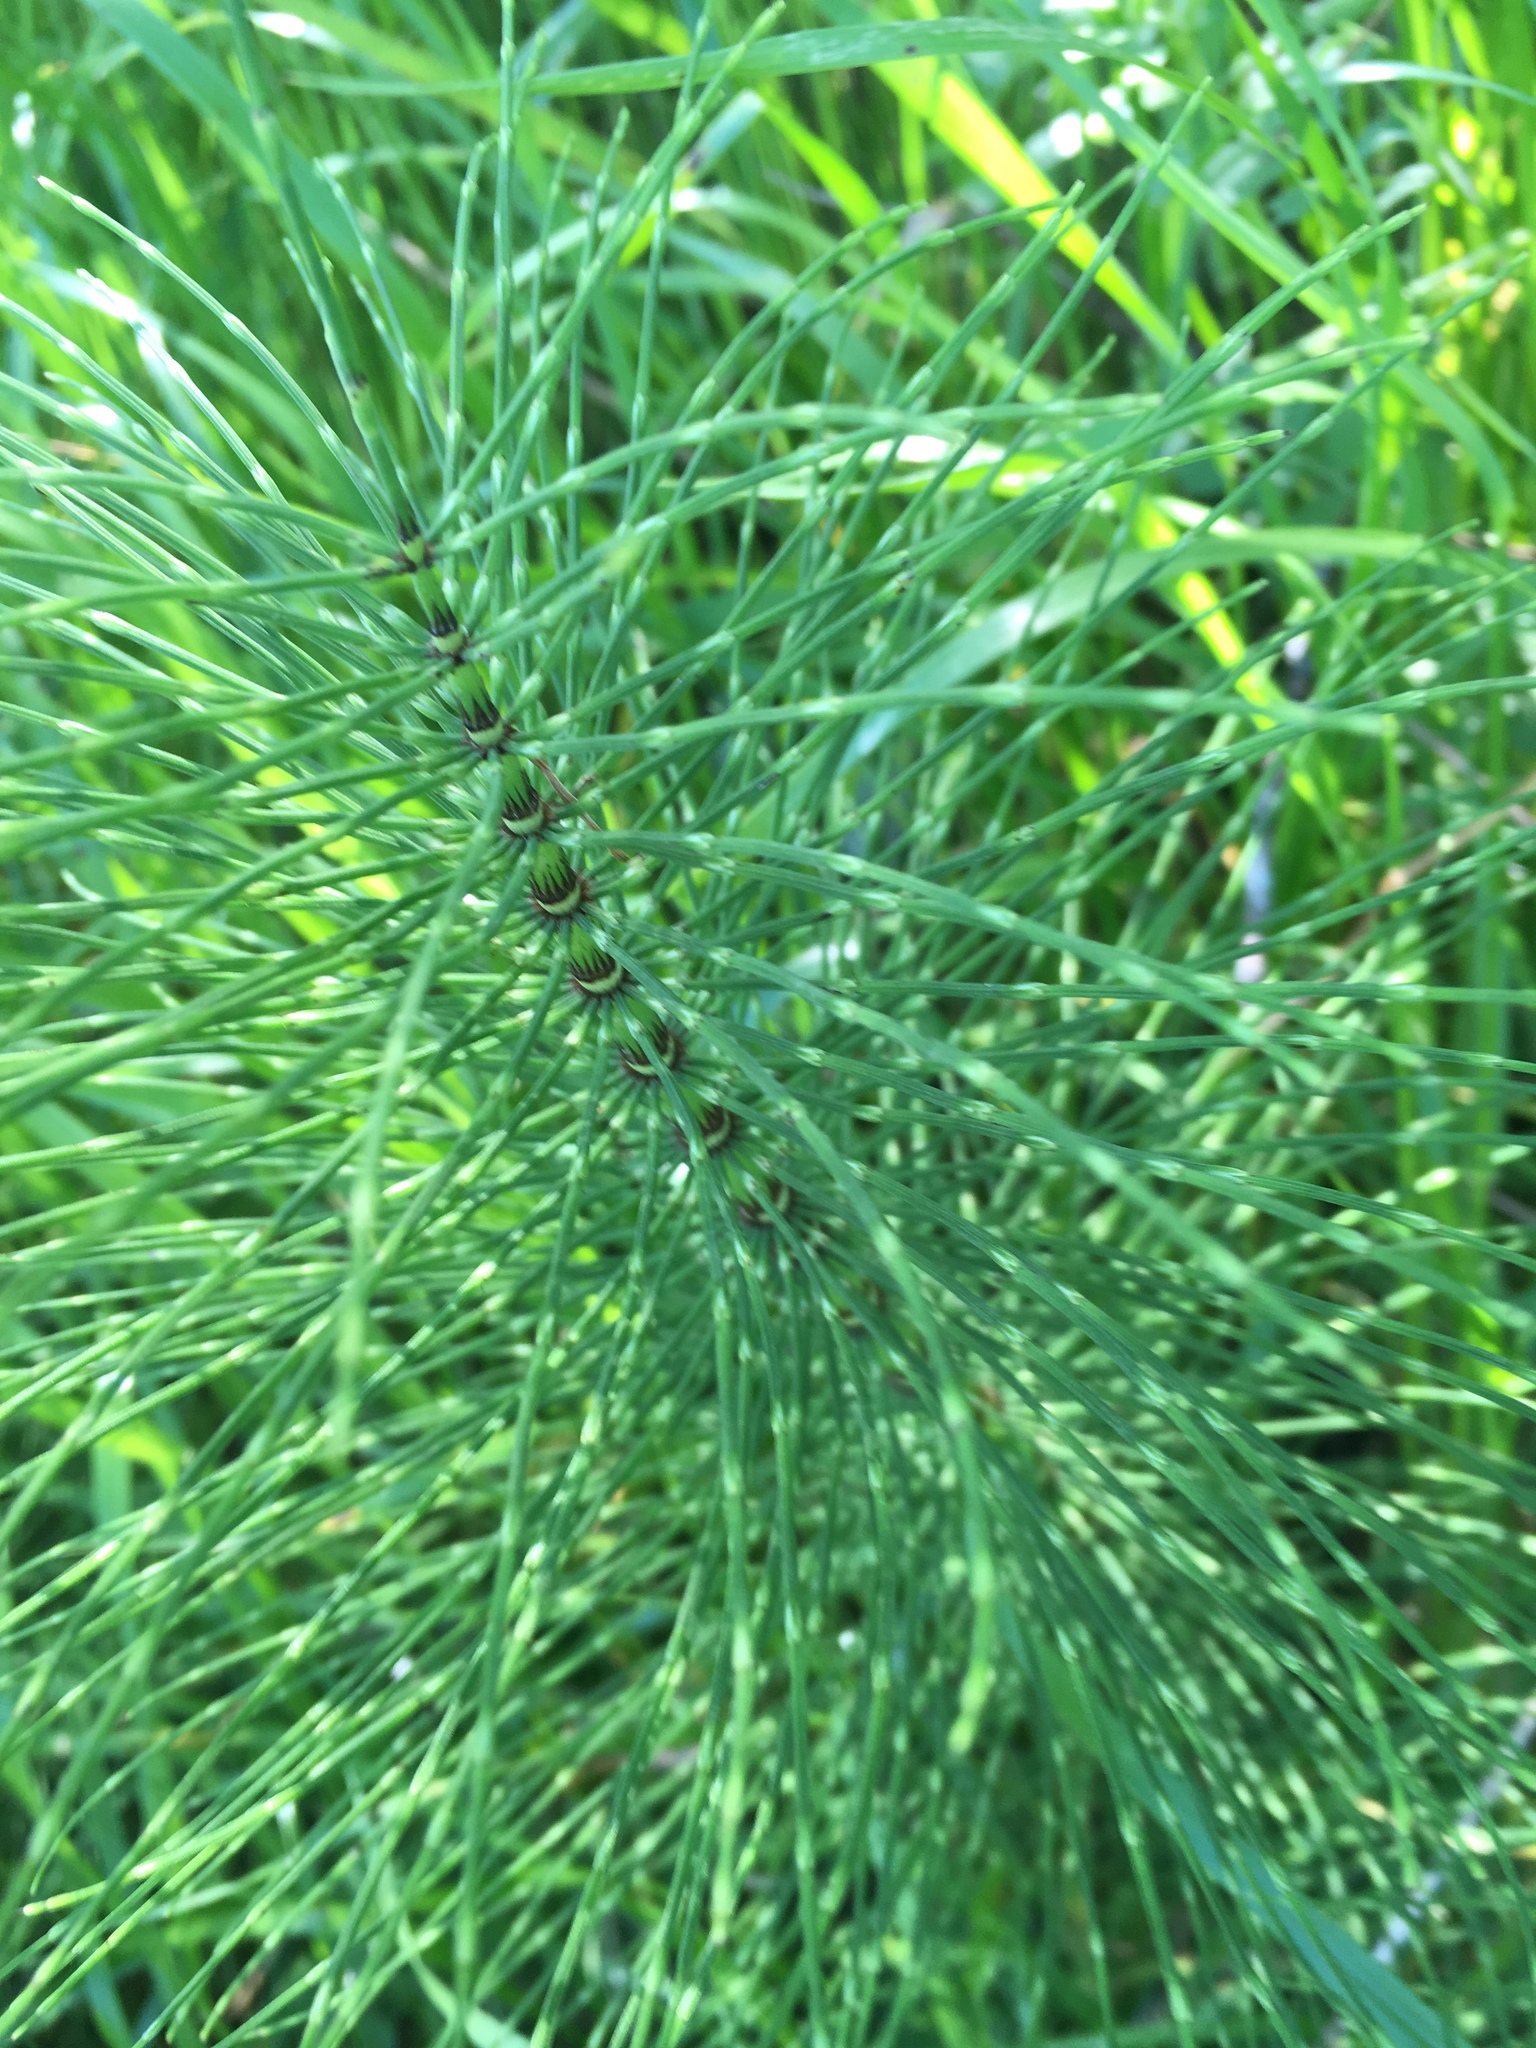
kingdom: Plantae
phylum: Tracheophyta
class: Polypodiopsida
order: Equisetales
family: Equisetaceae
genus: Equisetum
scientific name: Equisetum telmateia
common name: Great horsetail
